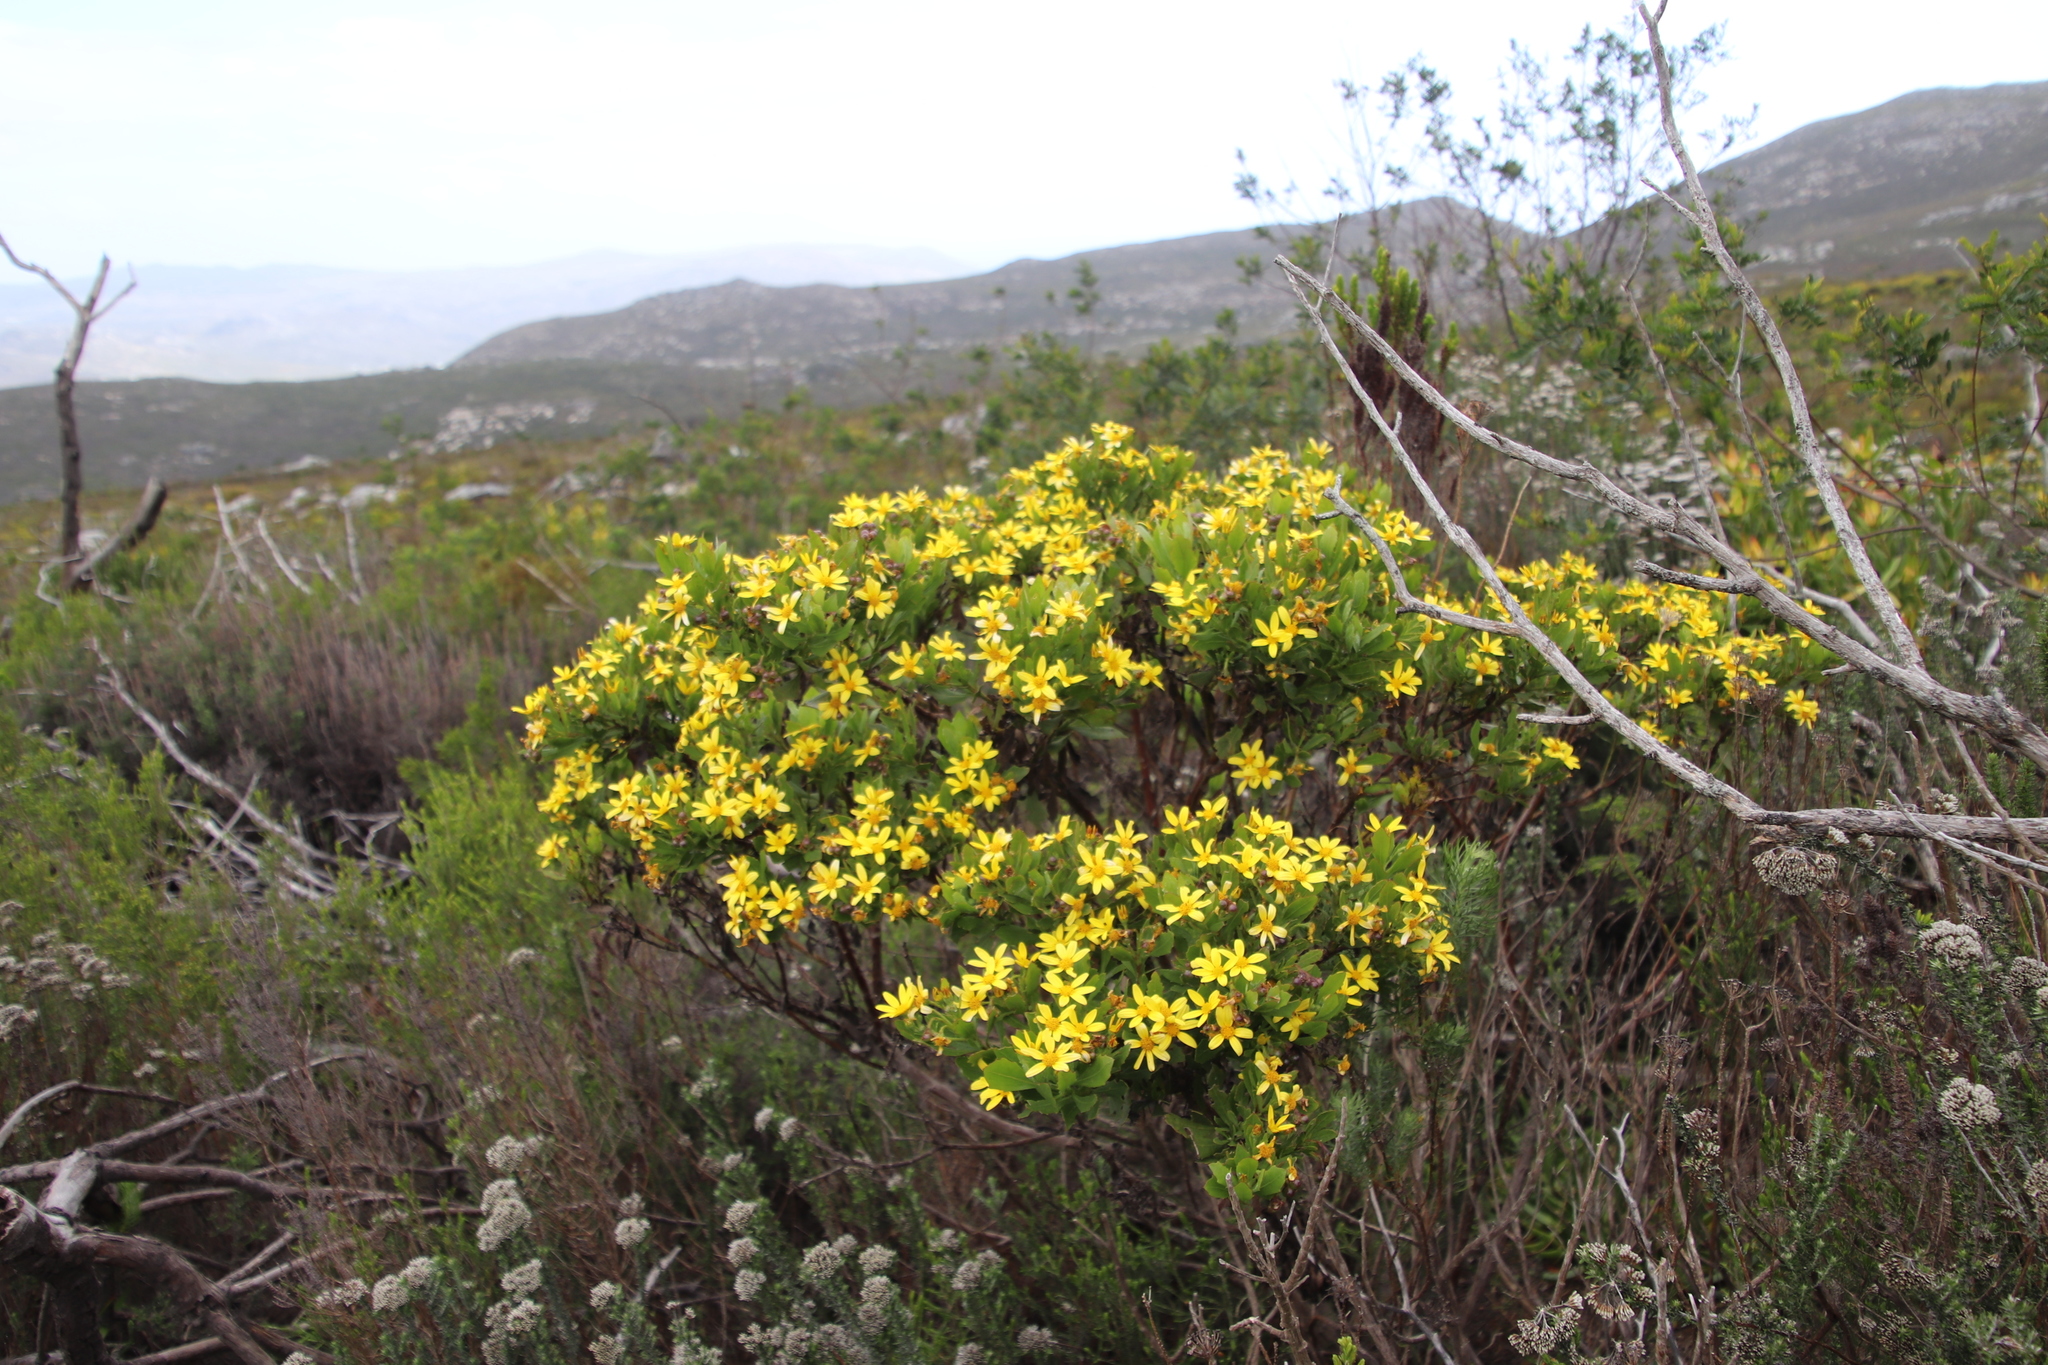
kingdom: Plantae
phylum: Tracheophyta
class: Magnoliopsida
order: Asterales
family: Asteraceae
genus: Osteospermum
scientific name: Osteospermum moniliferum
